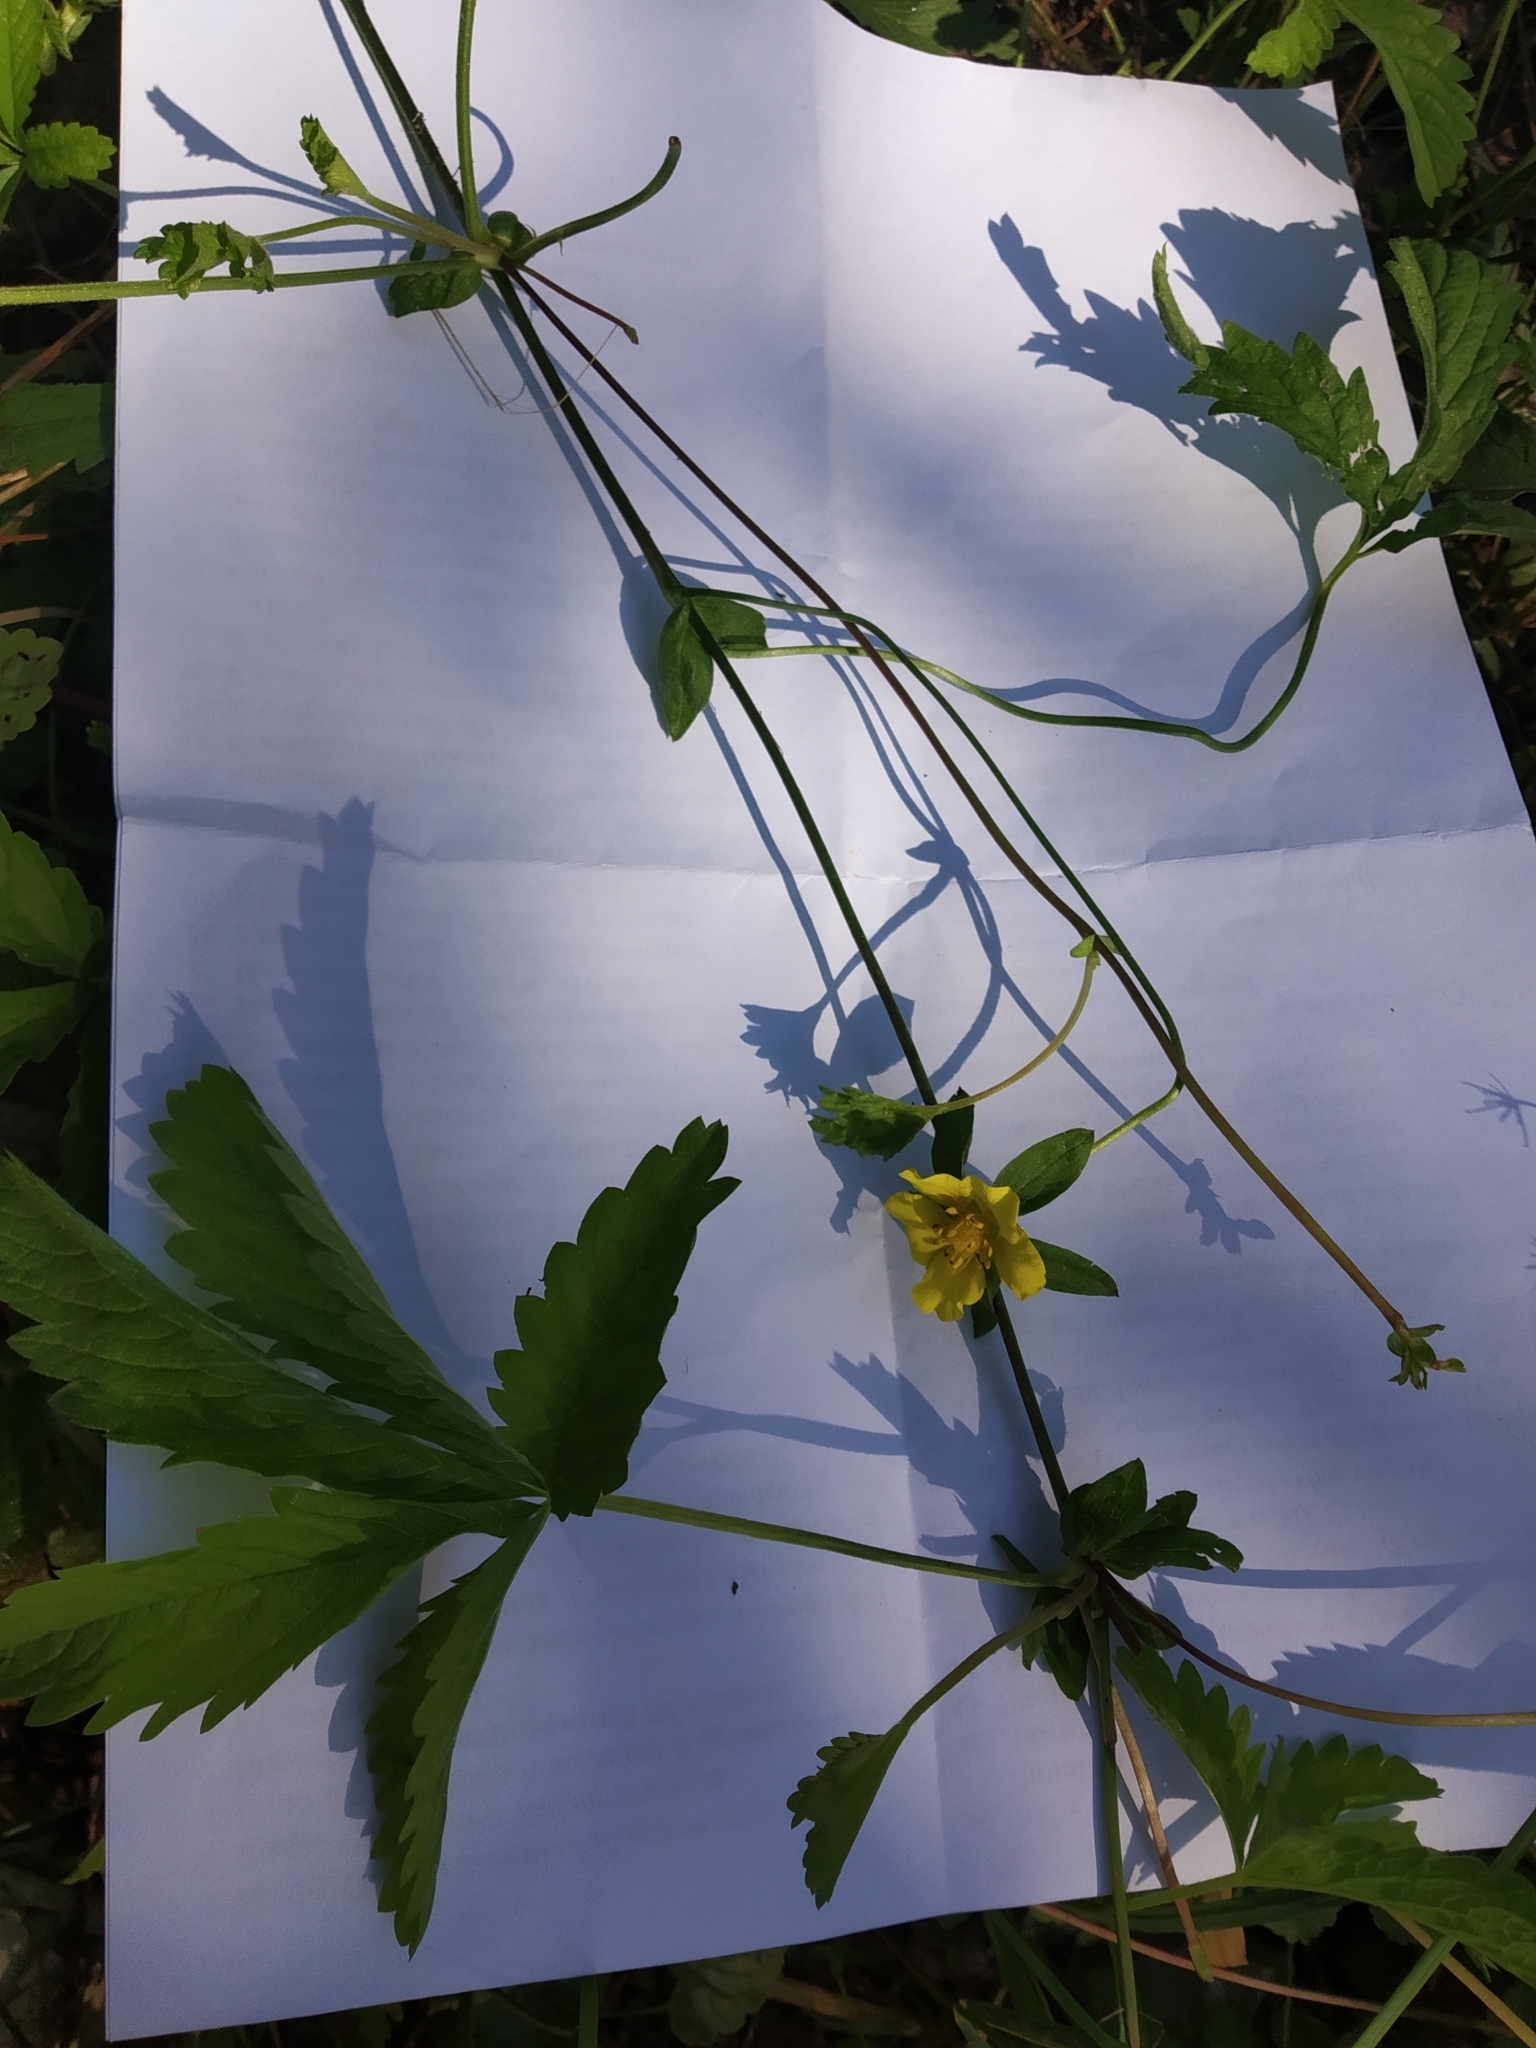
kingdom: Plantae
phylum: Tracheophyta
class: Magnoliopsida
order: Rosales
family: Rosaceae
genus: Potentilla
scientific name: Potentilla reptans
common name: Creeping cinquefoil
